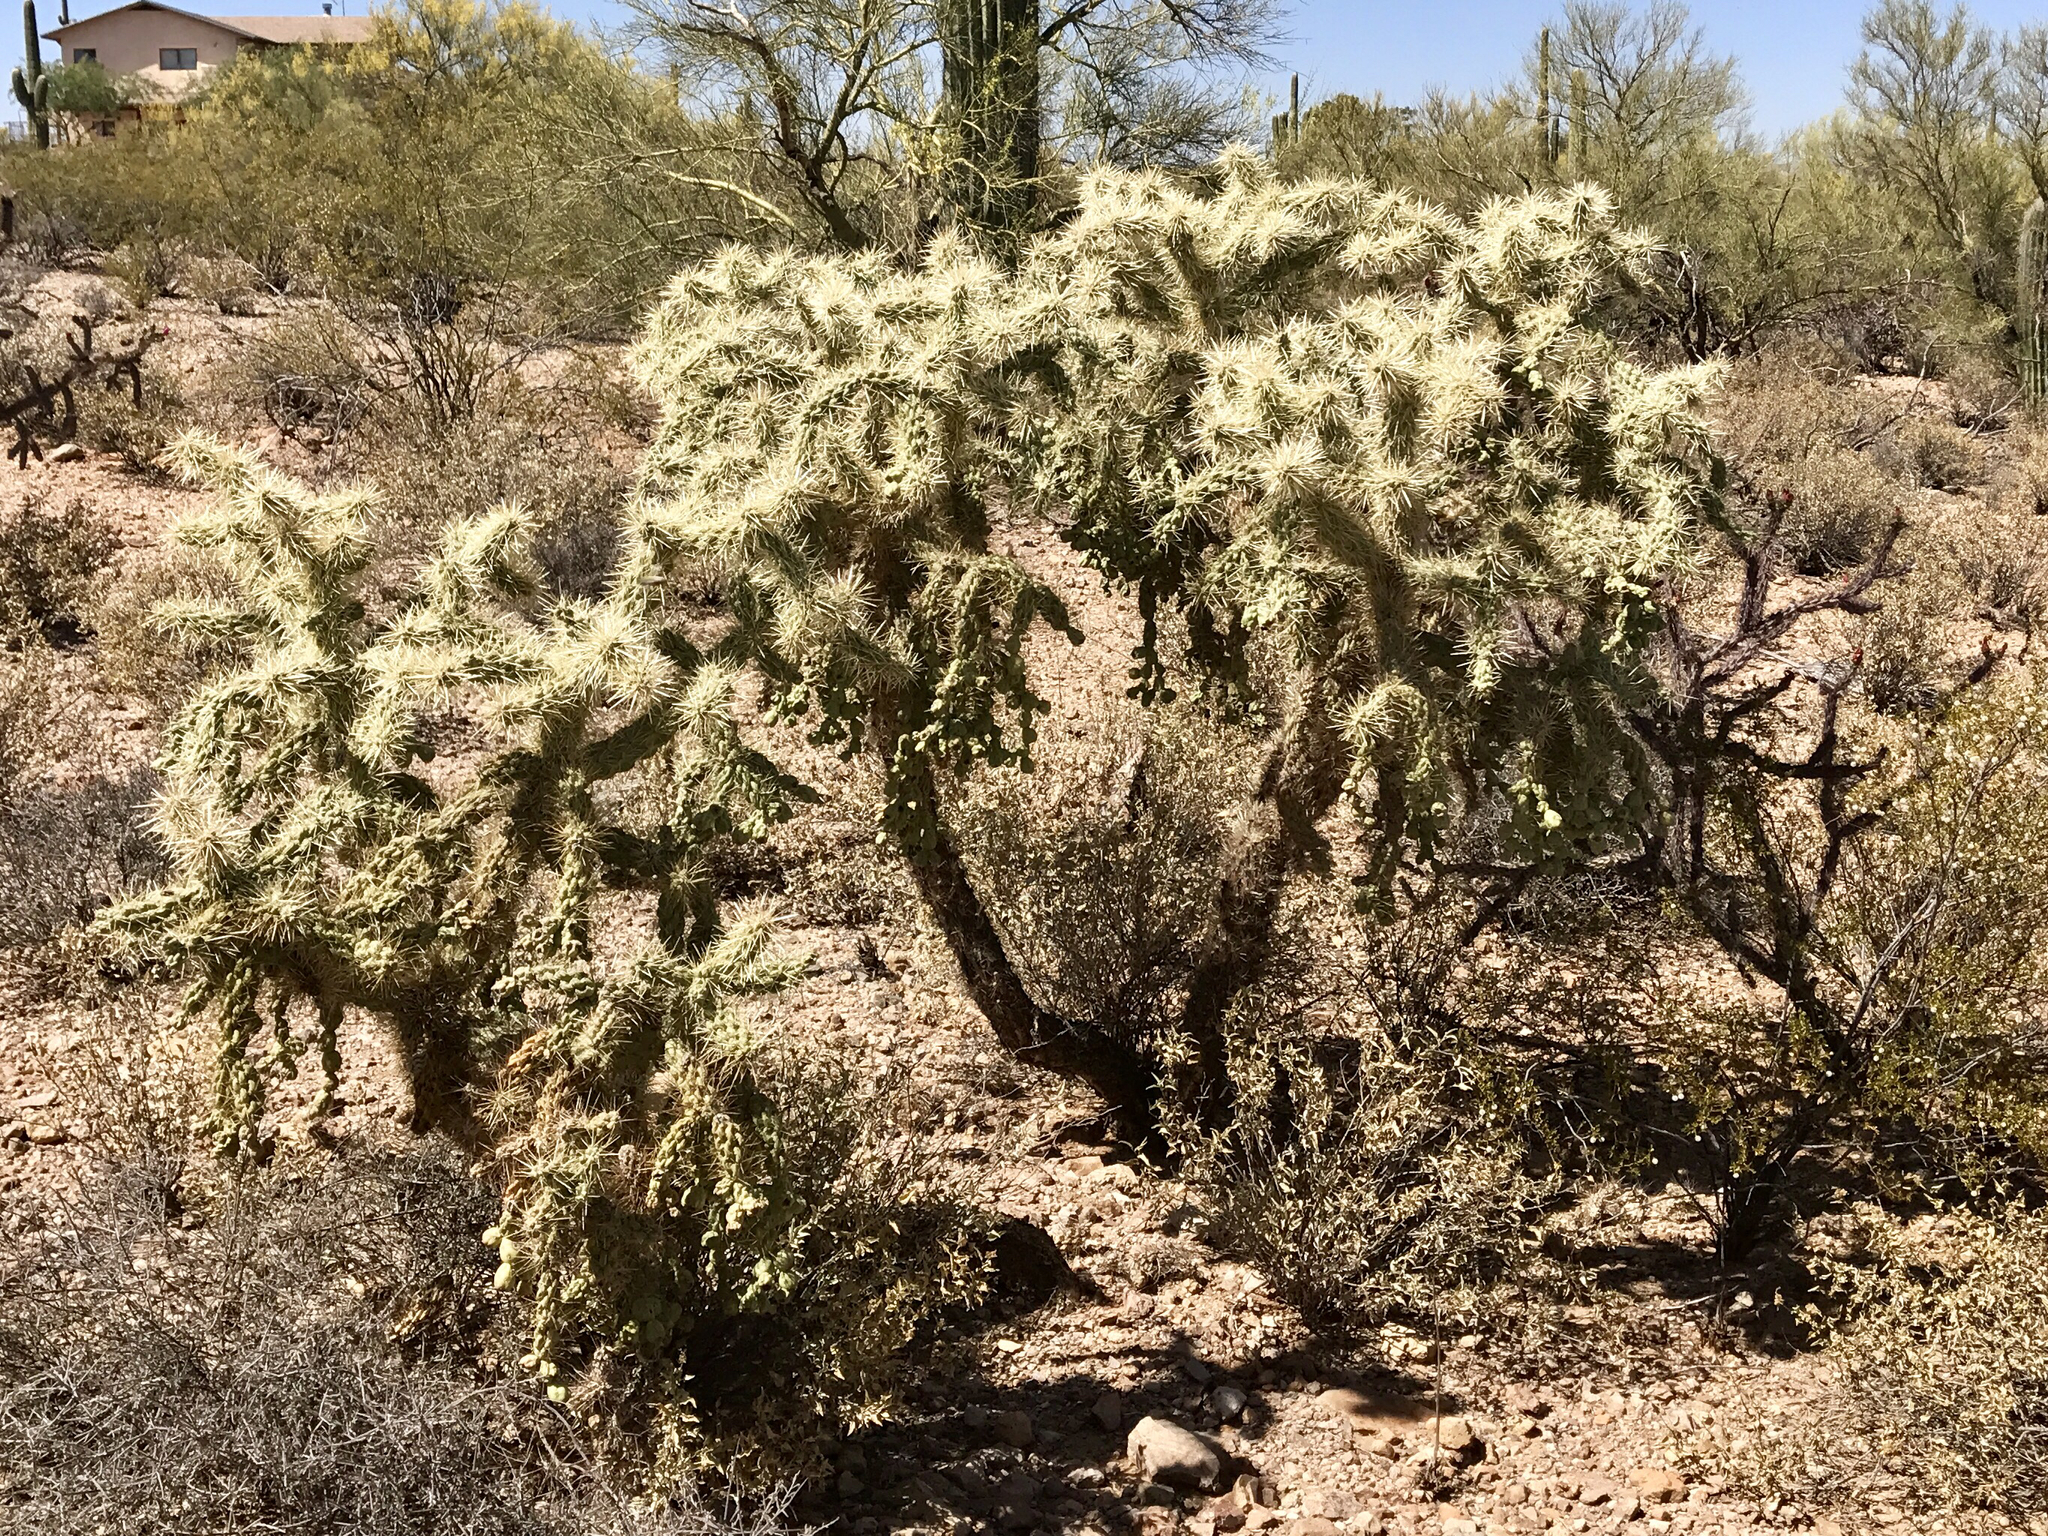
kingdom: Plantae
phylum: Tracheophyta
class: Magnoliopsida
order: Caryophyllales
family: Cactaceae
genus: Cylindropuntia
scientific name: Cylindropuntia fulgida
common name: Jumping cholla
